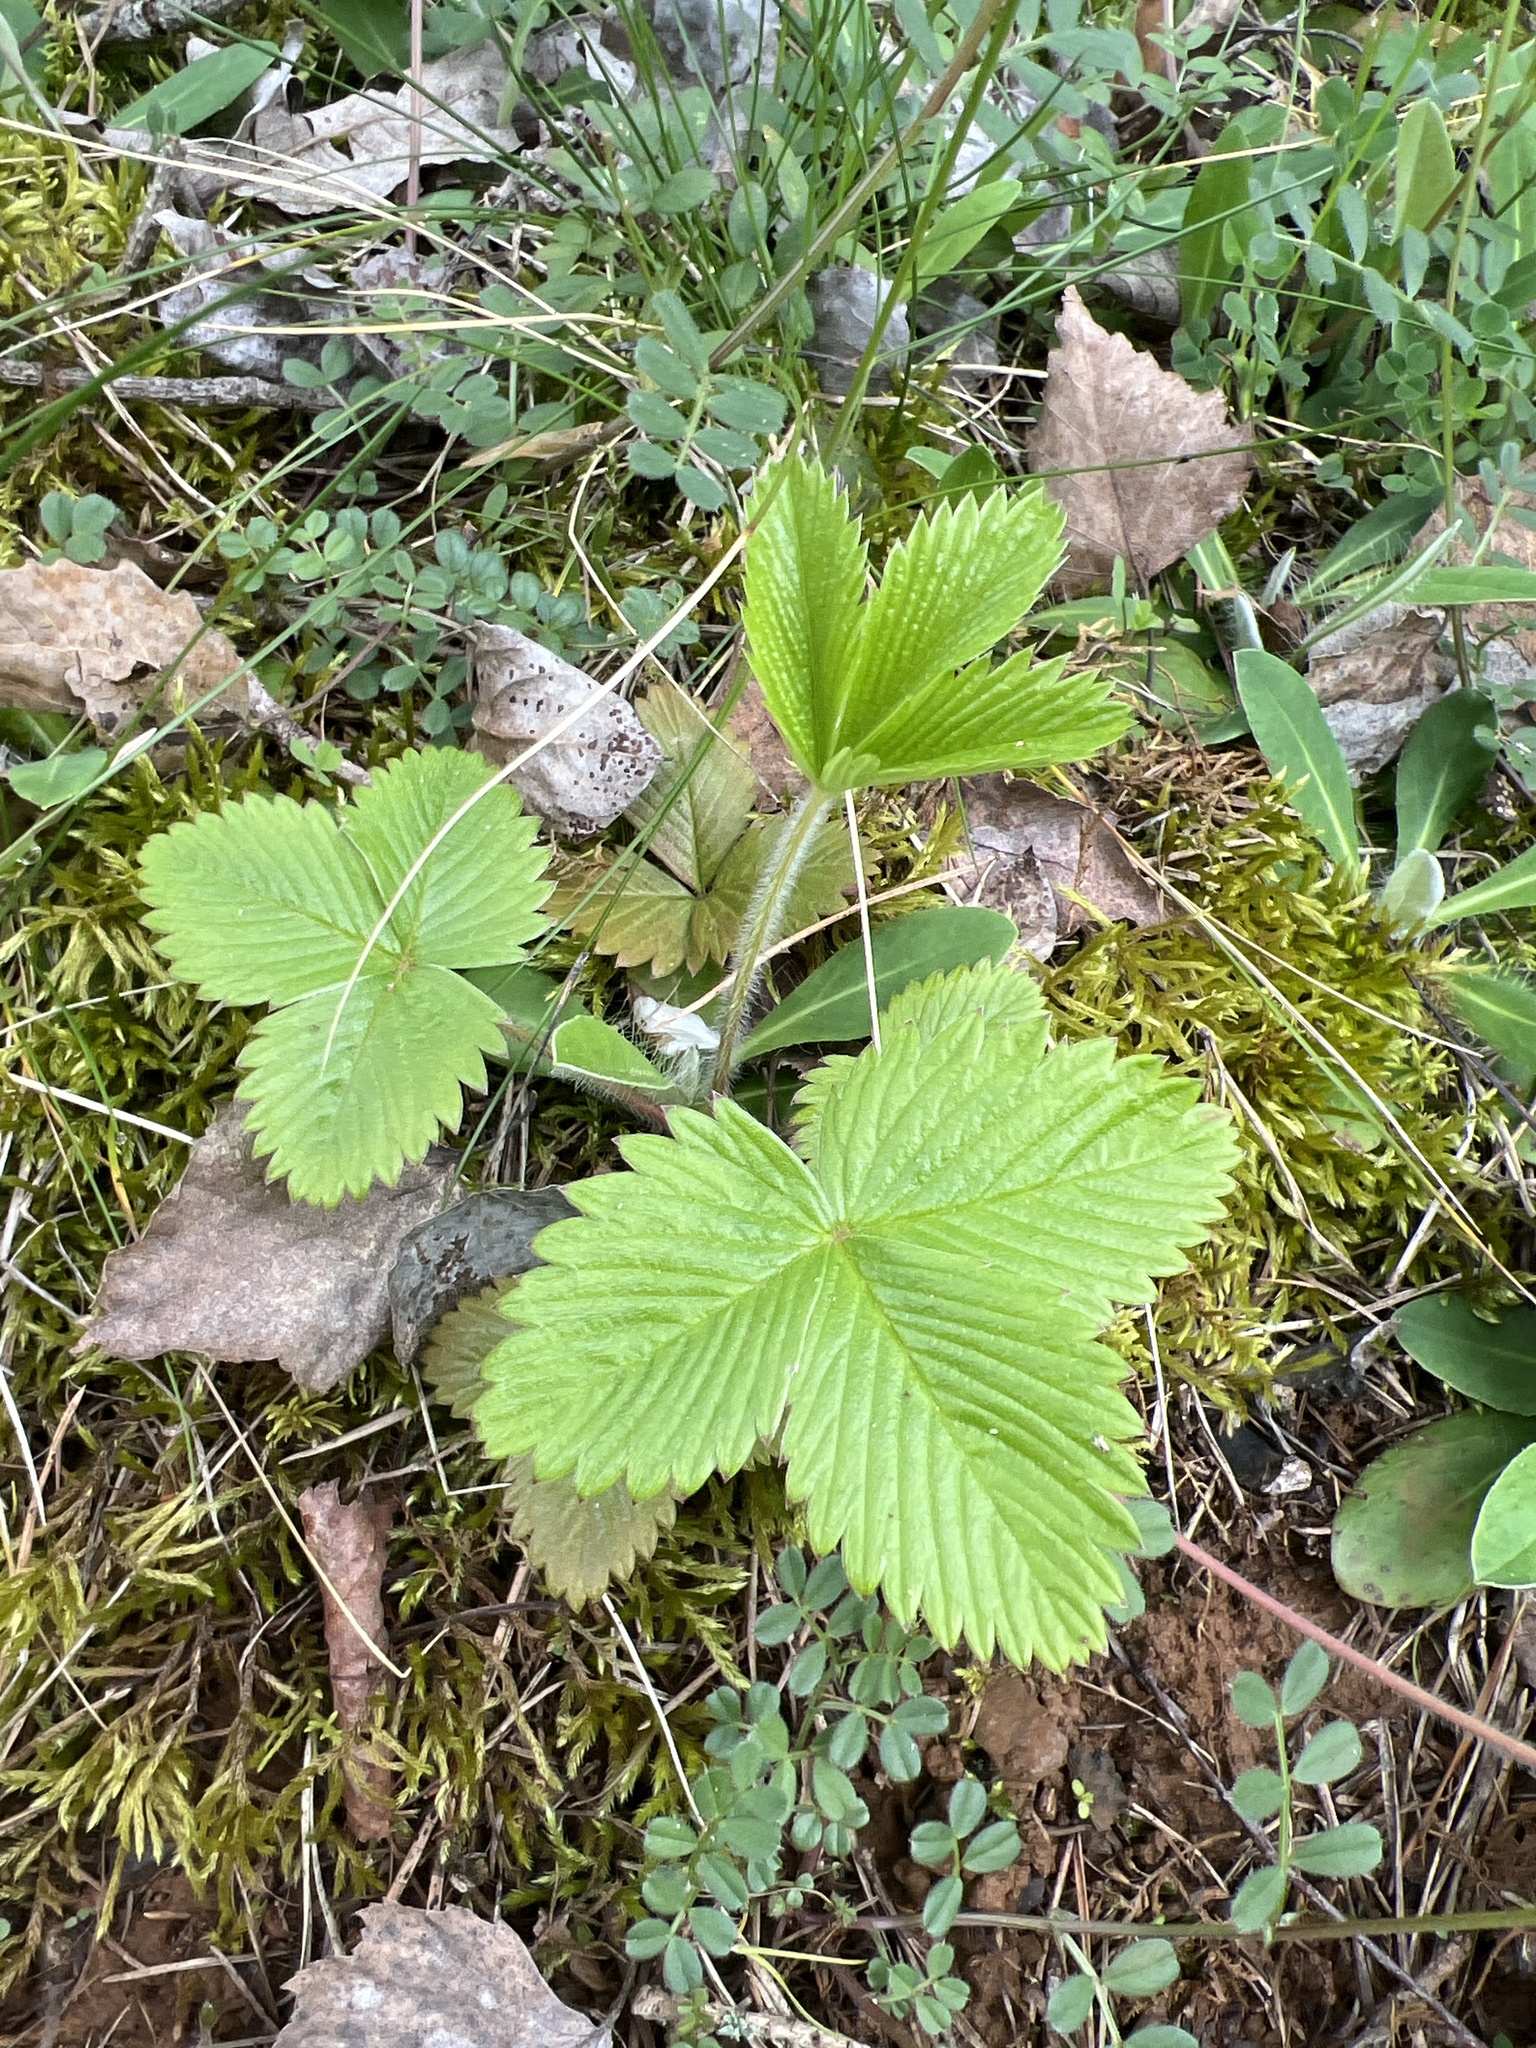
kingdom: Plantae
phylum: Tracheophyta
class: Magnoliopsida
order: Rosales
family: Rosaceae
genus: Fragaria
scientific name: Fragaria vesca
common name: Wild strawberry
